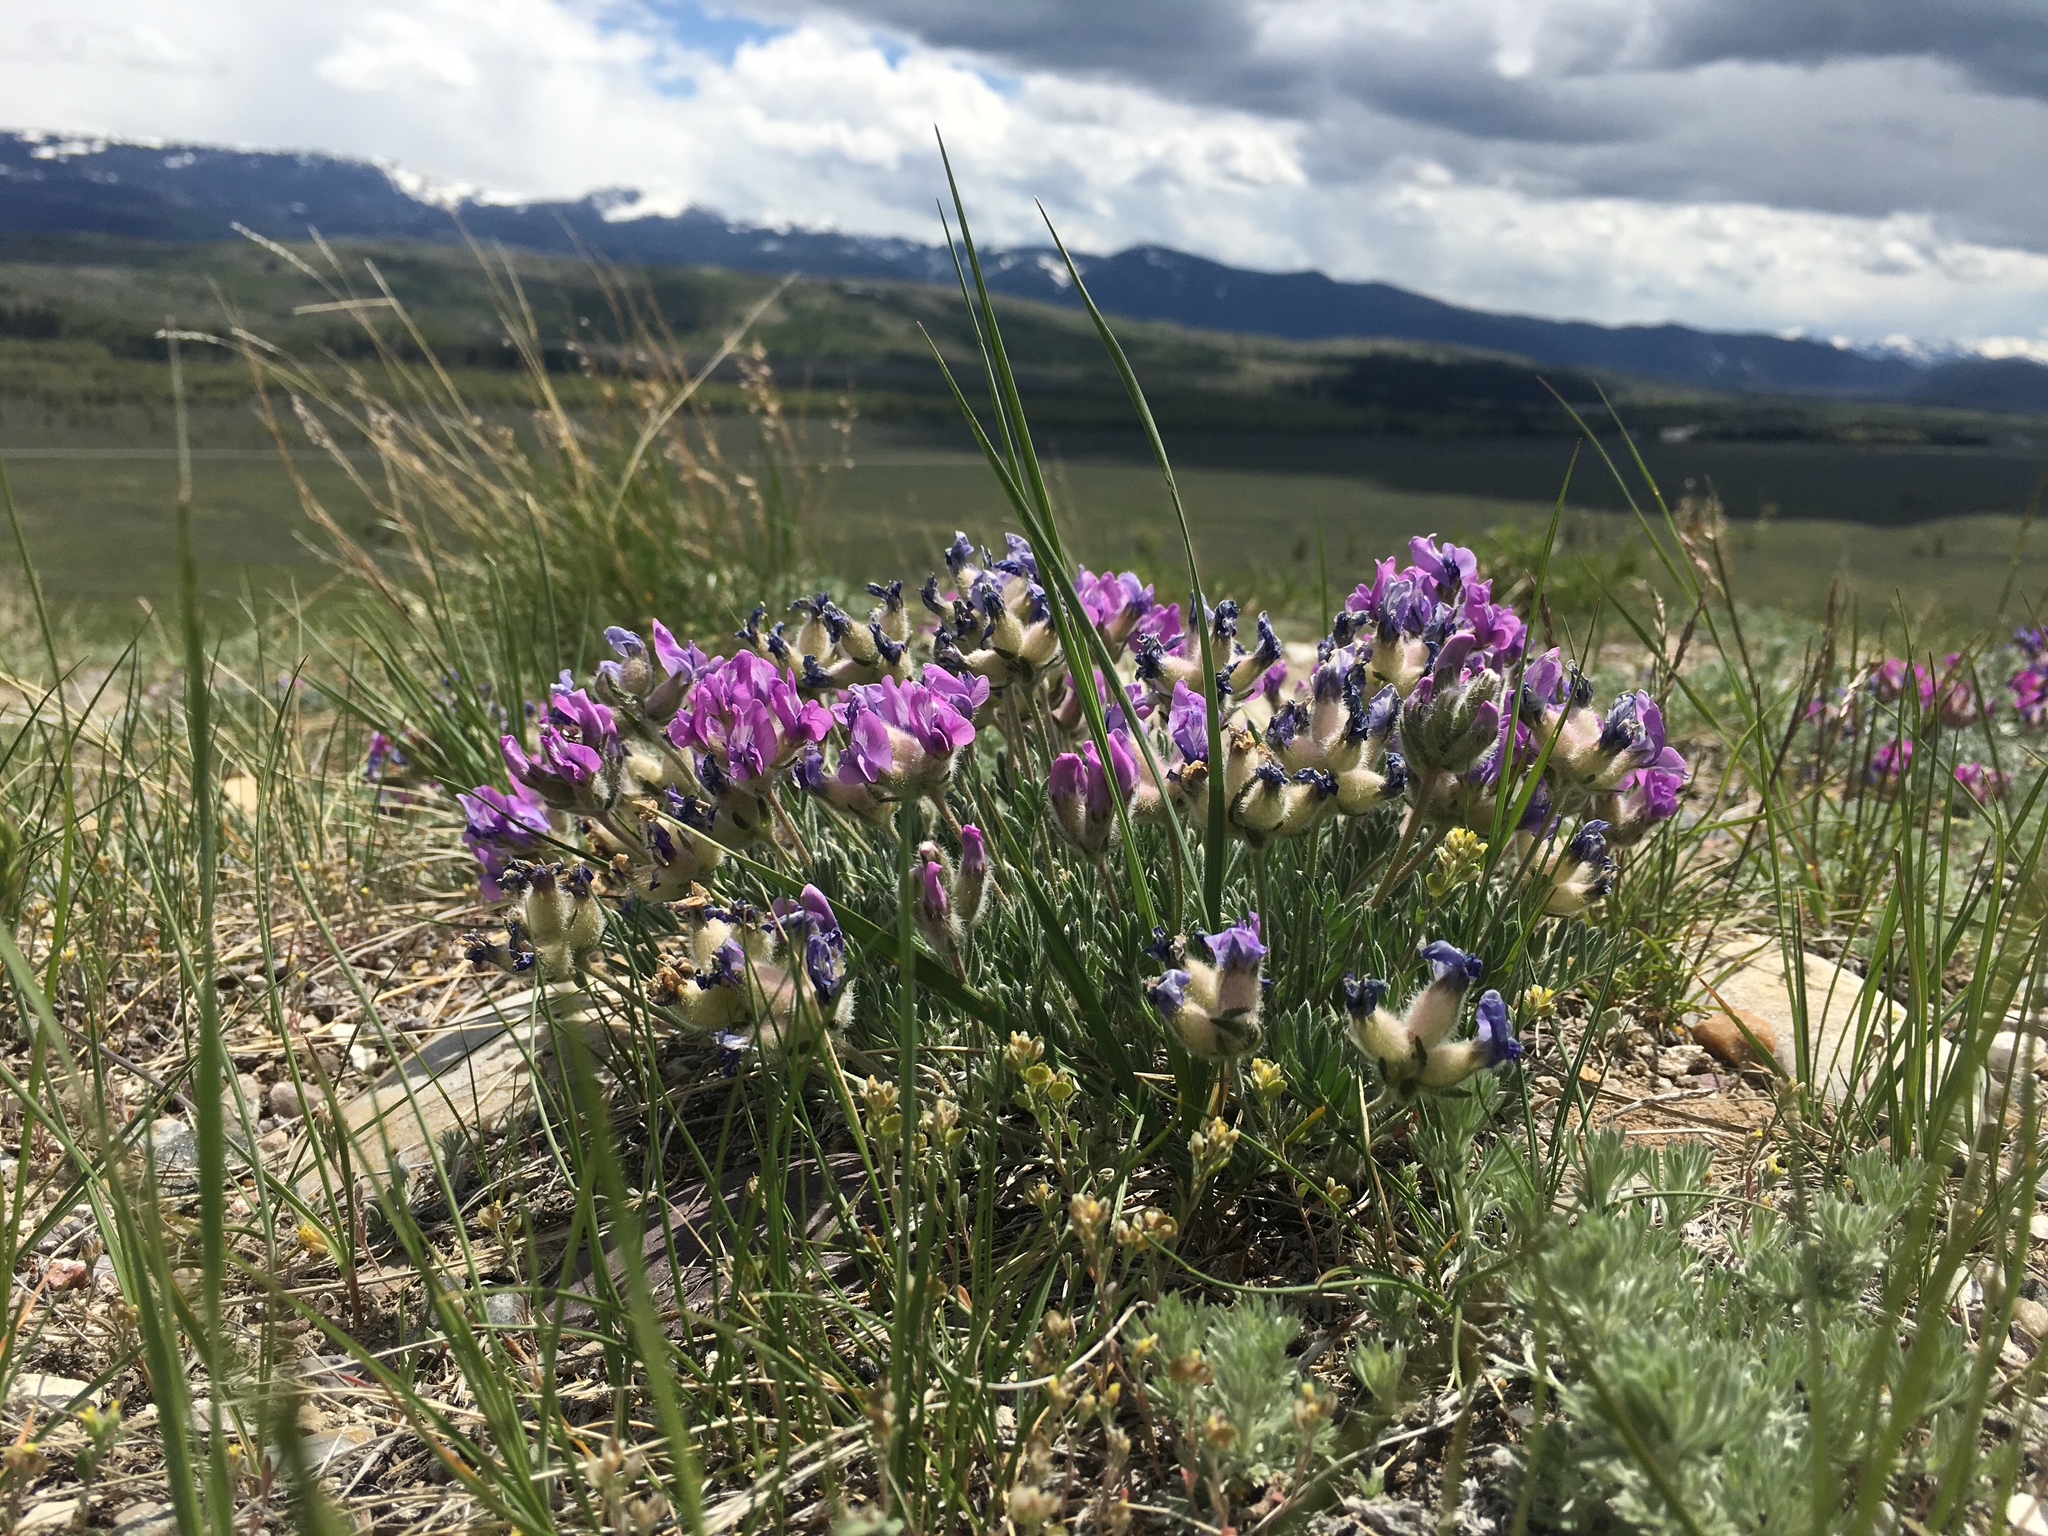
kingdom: Plantae
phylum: Tracheophyta
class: Magnoliopsida
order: Fabales
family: Fabaceae
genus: Oxytropis
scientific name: Oxytropis lagopus
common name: Hare's-foot locoweed
